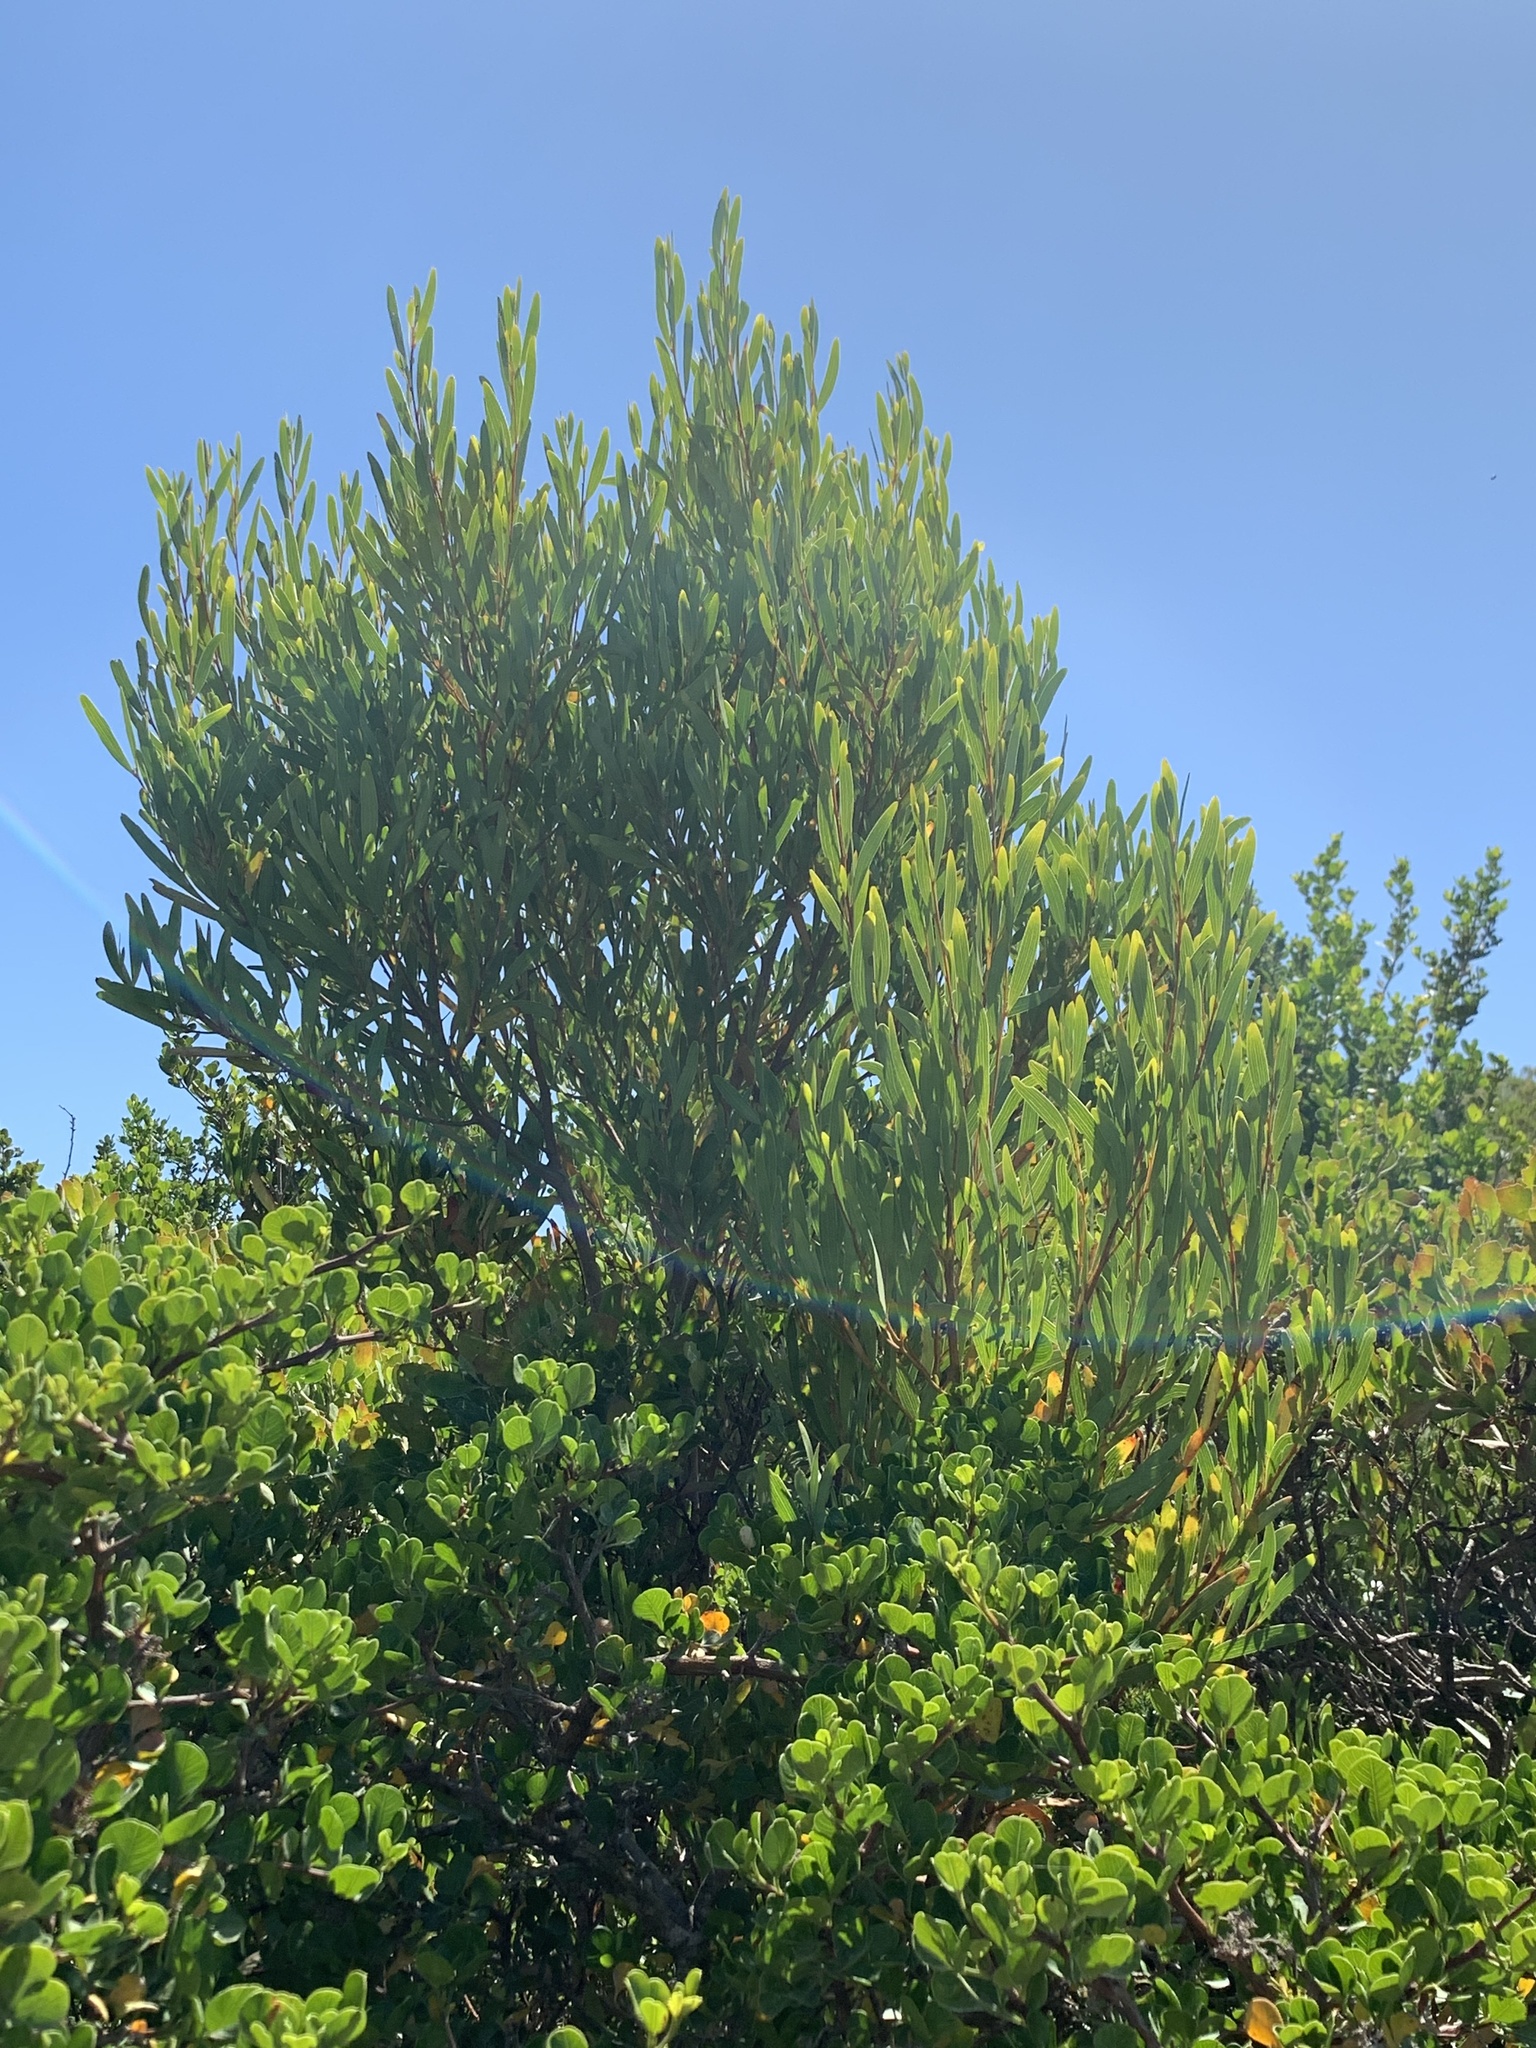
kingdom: Plantae
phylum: Tracheophyta
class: Magnoliopsida
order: Fabales
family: Fabaceae
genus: Acacia
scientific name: Acacia cyclops
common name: Coastal wattle
